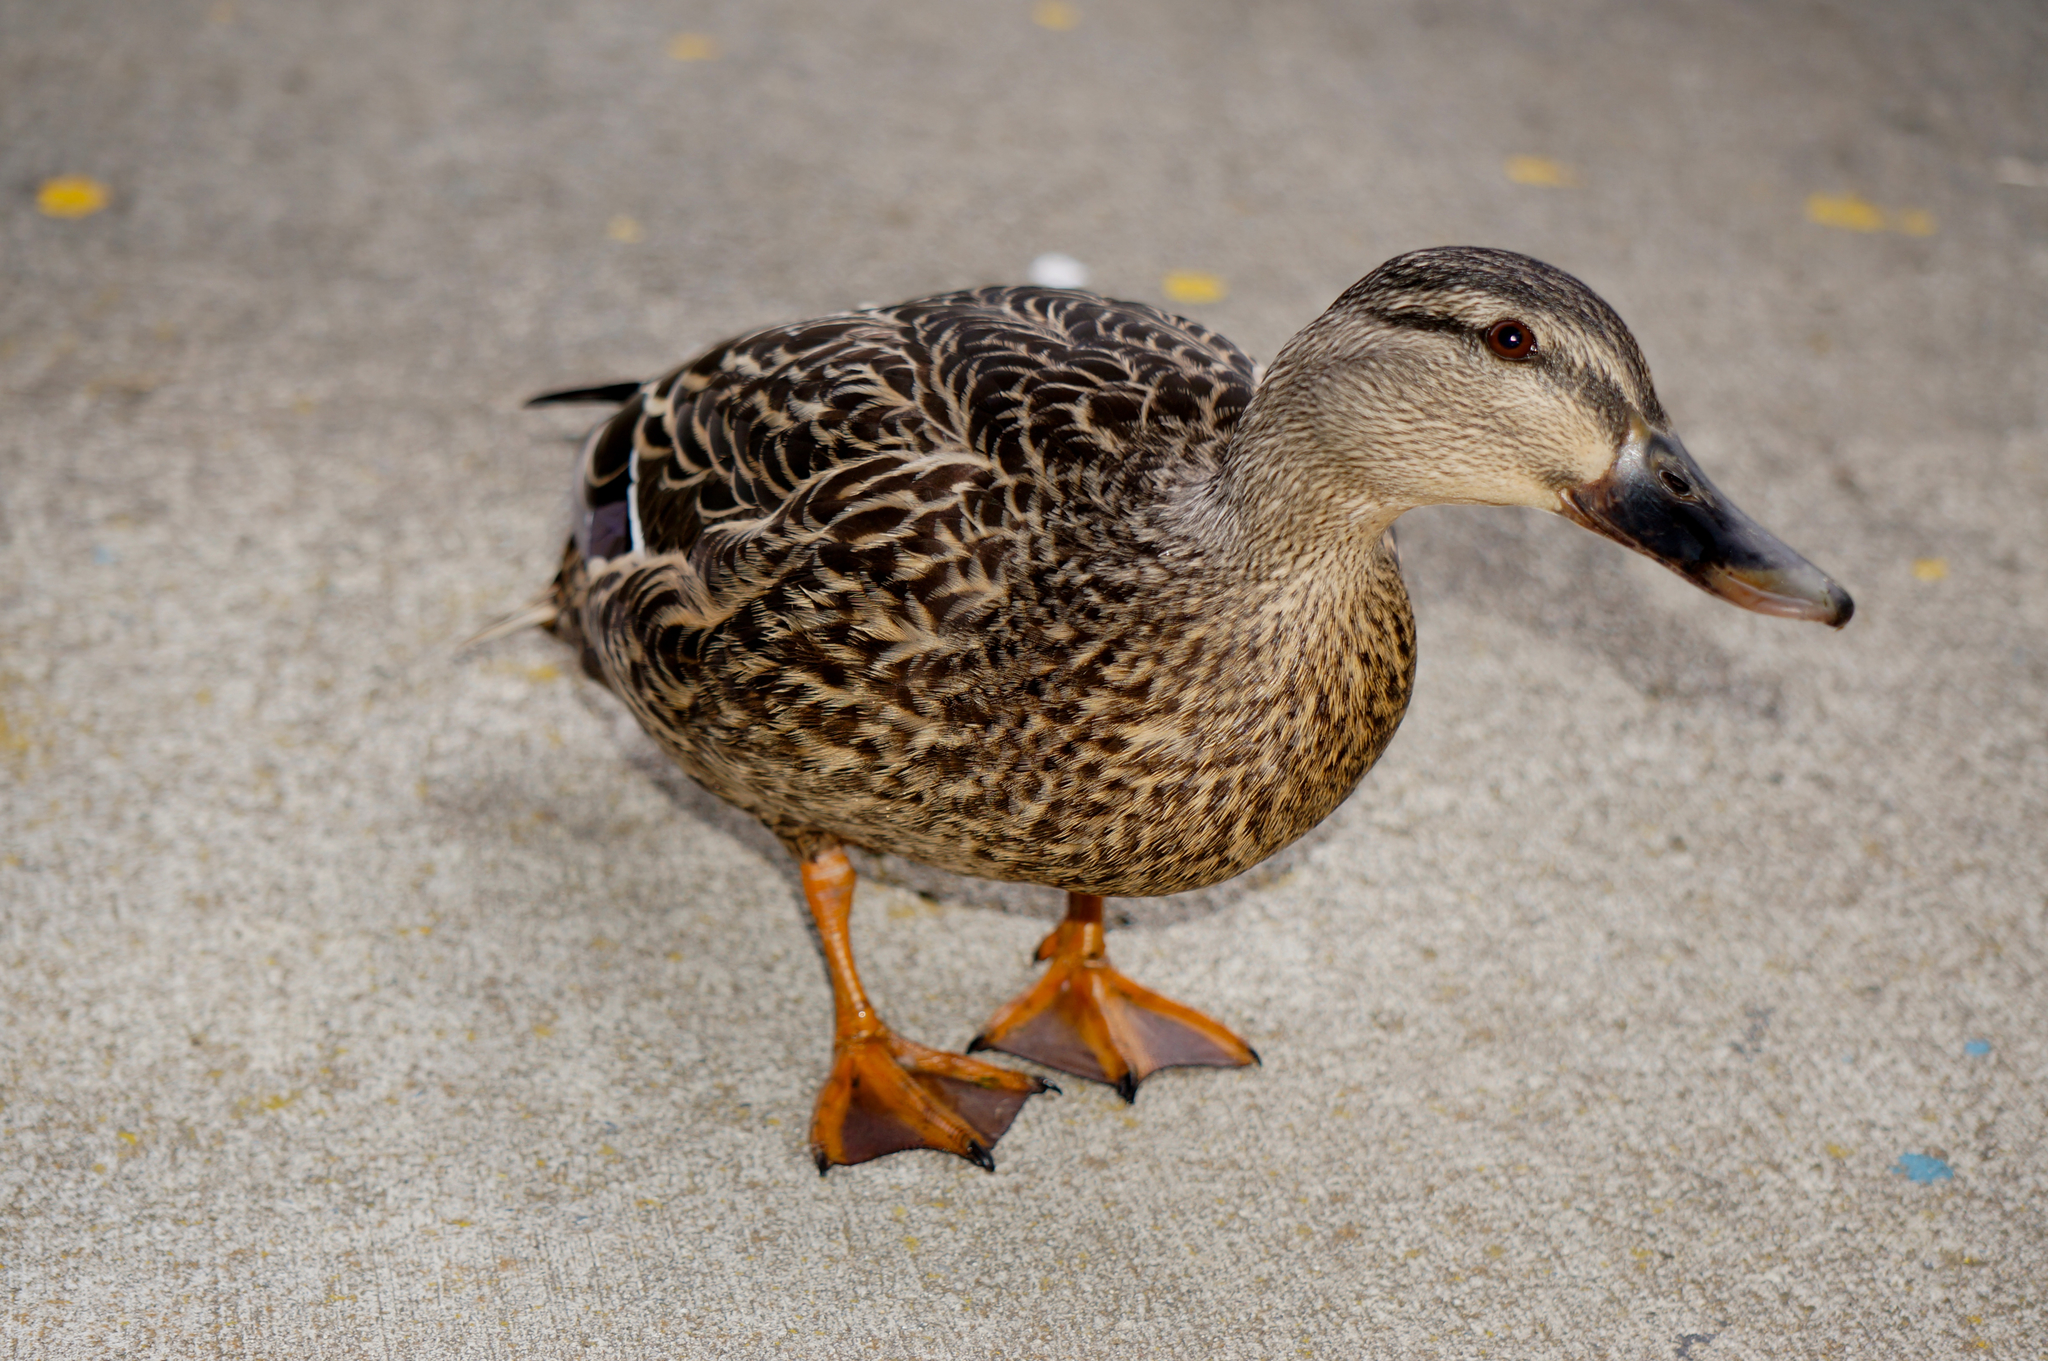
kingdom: Animalia
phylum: Chordata
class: Aves
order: Anseriformes
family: Anatidae
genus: Anas
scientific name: Anas
